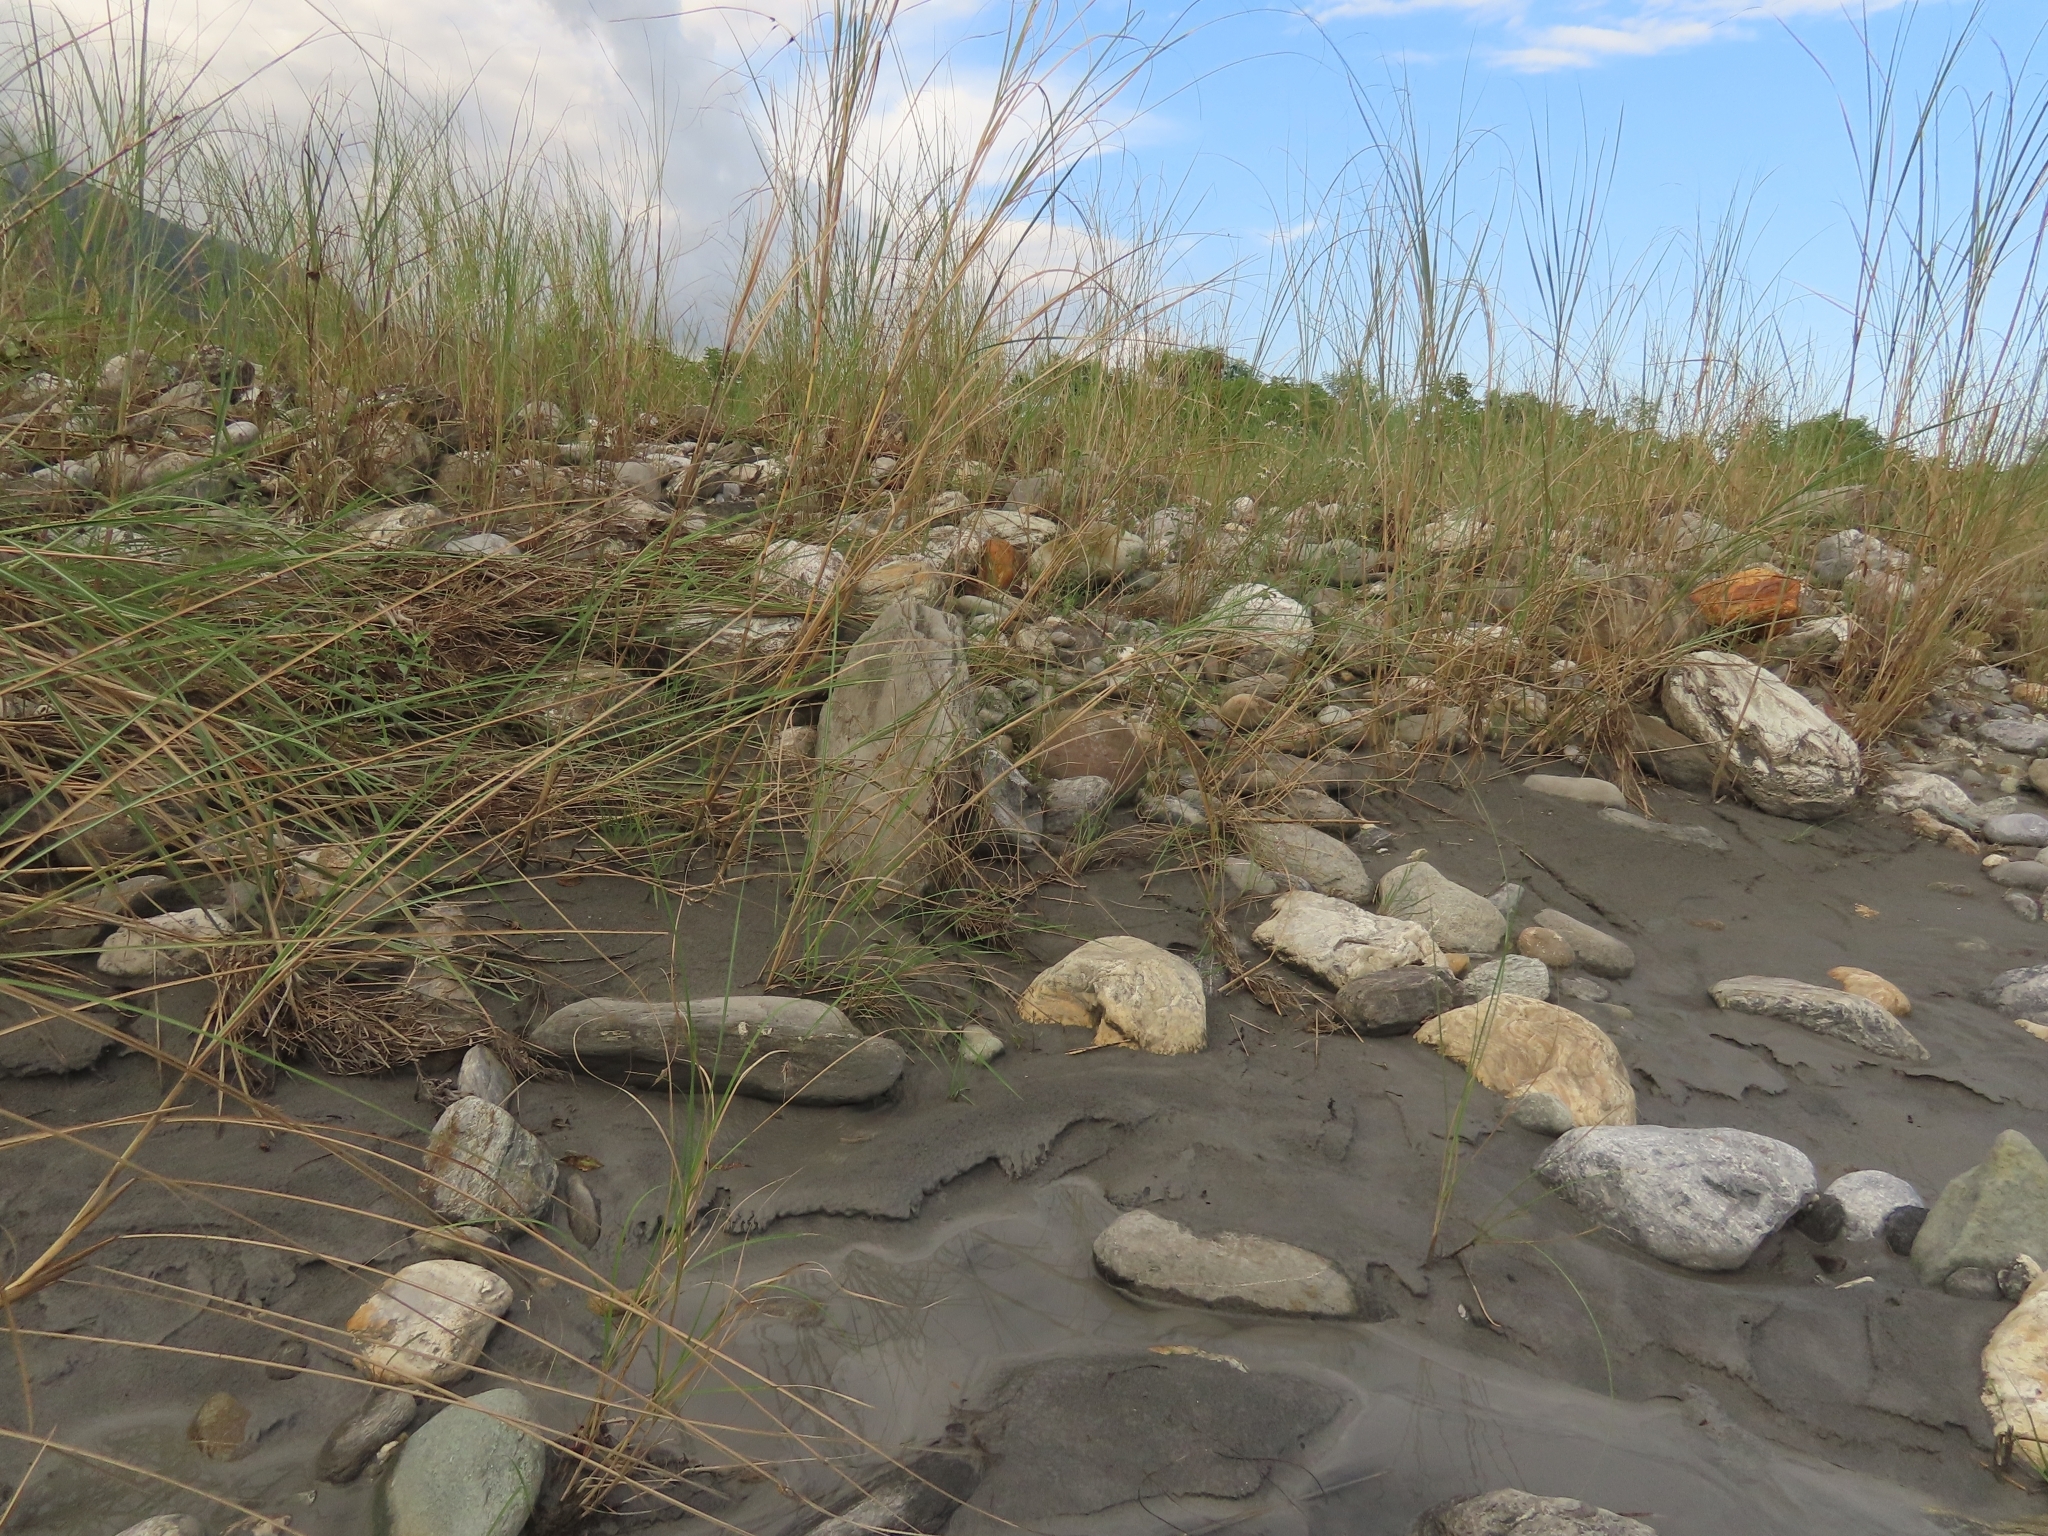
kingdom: Animalia
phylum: Chordata
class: Amphibia
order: Anura
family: Rhacophoridae
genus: Buergeria
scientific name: Buergeria otai
